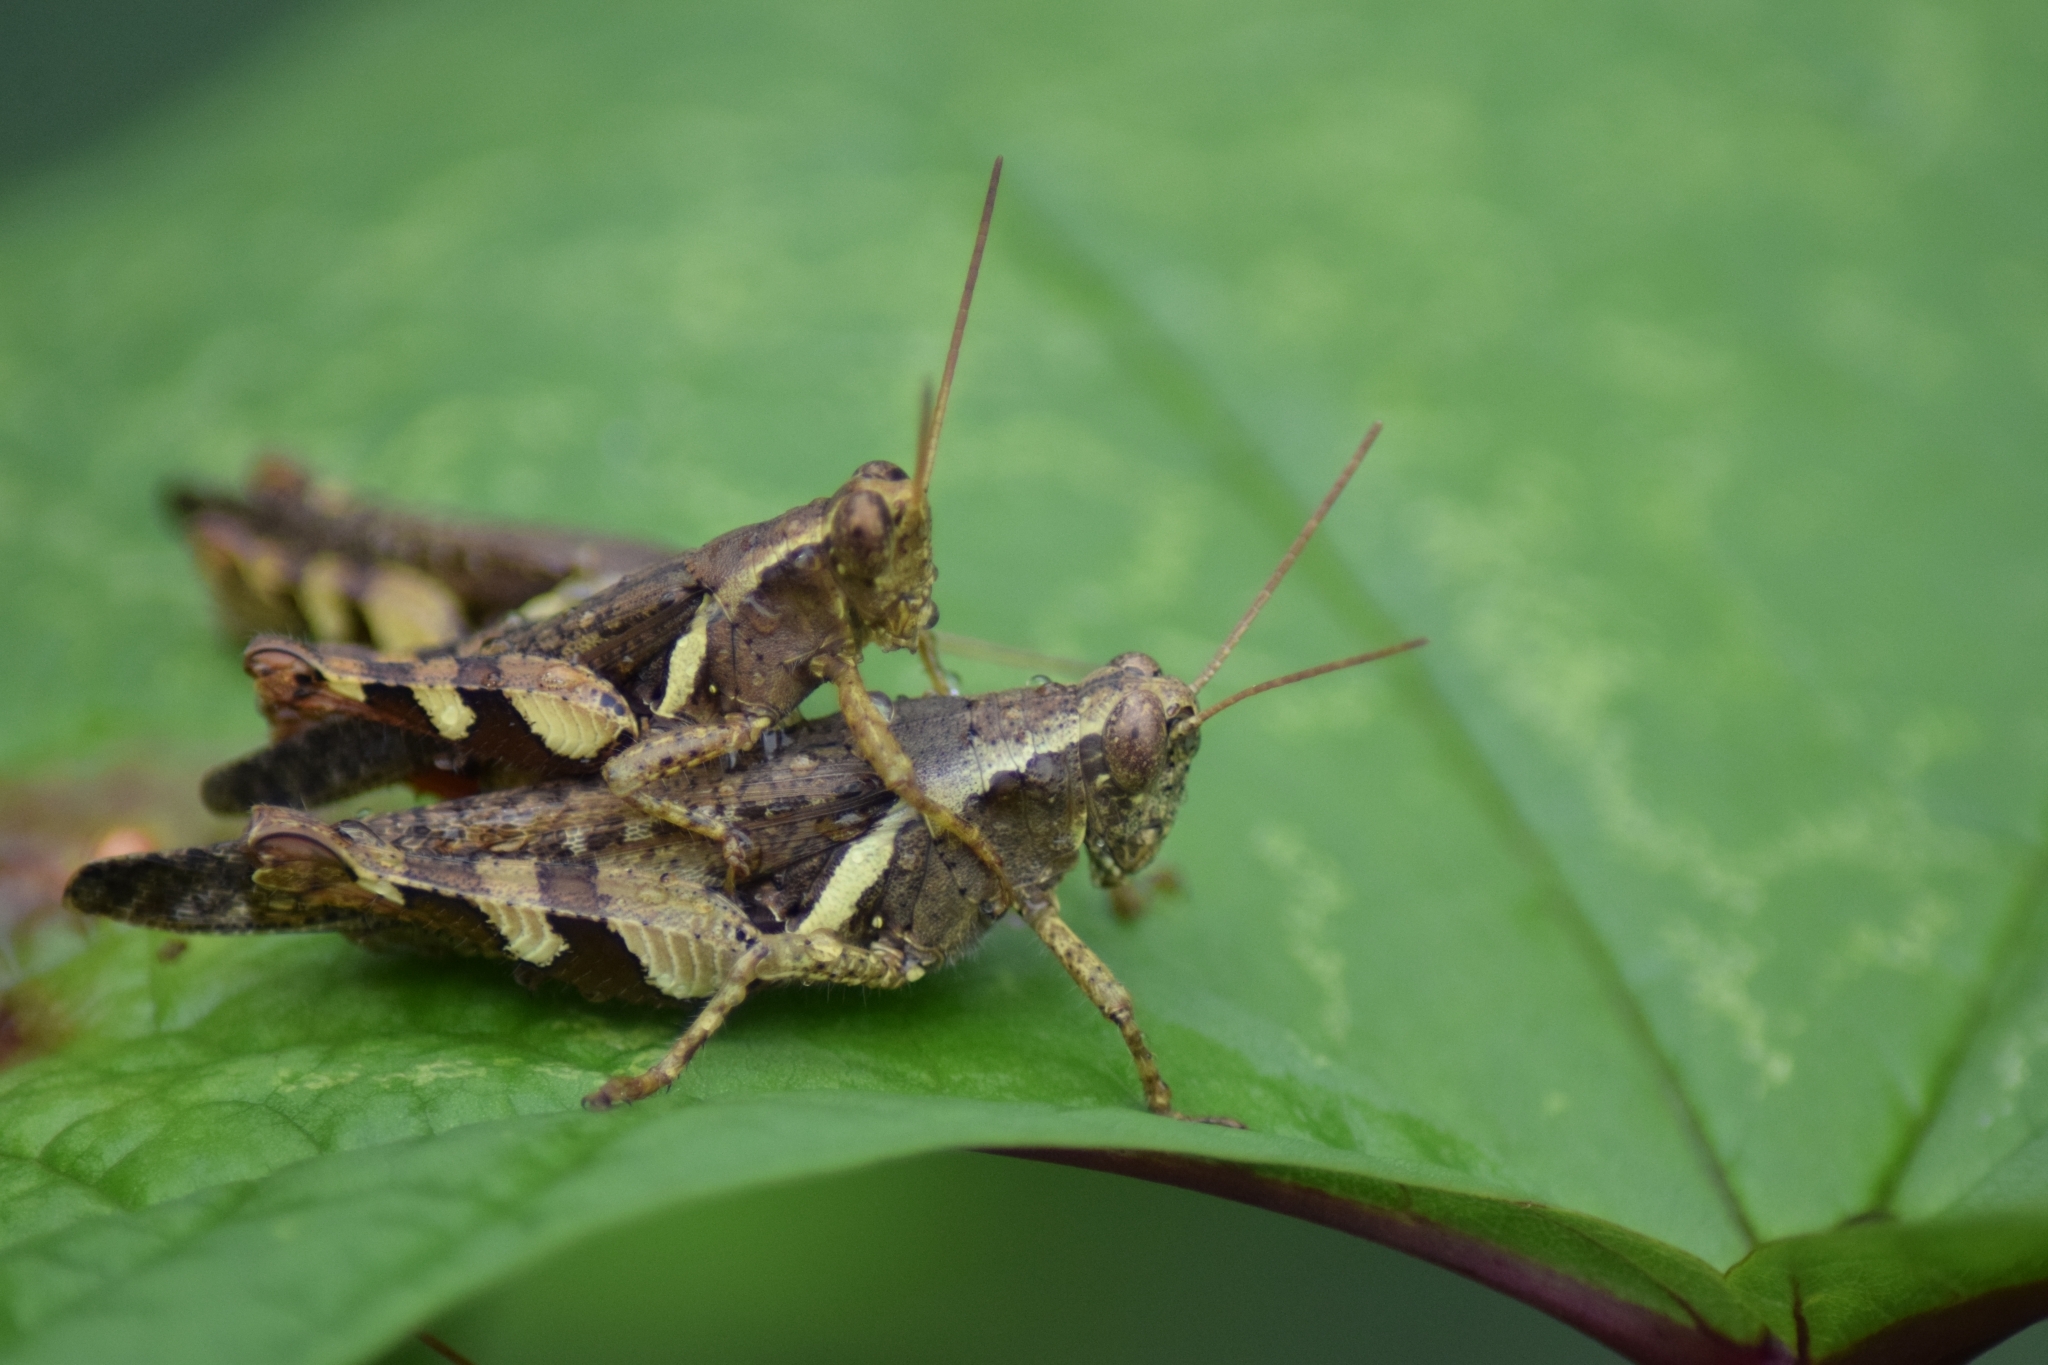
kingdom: Animalia
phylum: Arthropoda
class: Insecta
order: Orthoptera
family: Acrididae
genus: Xenocatantops
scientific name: Xenocatantops humile
